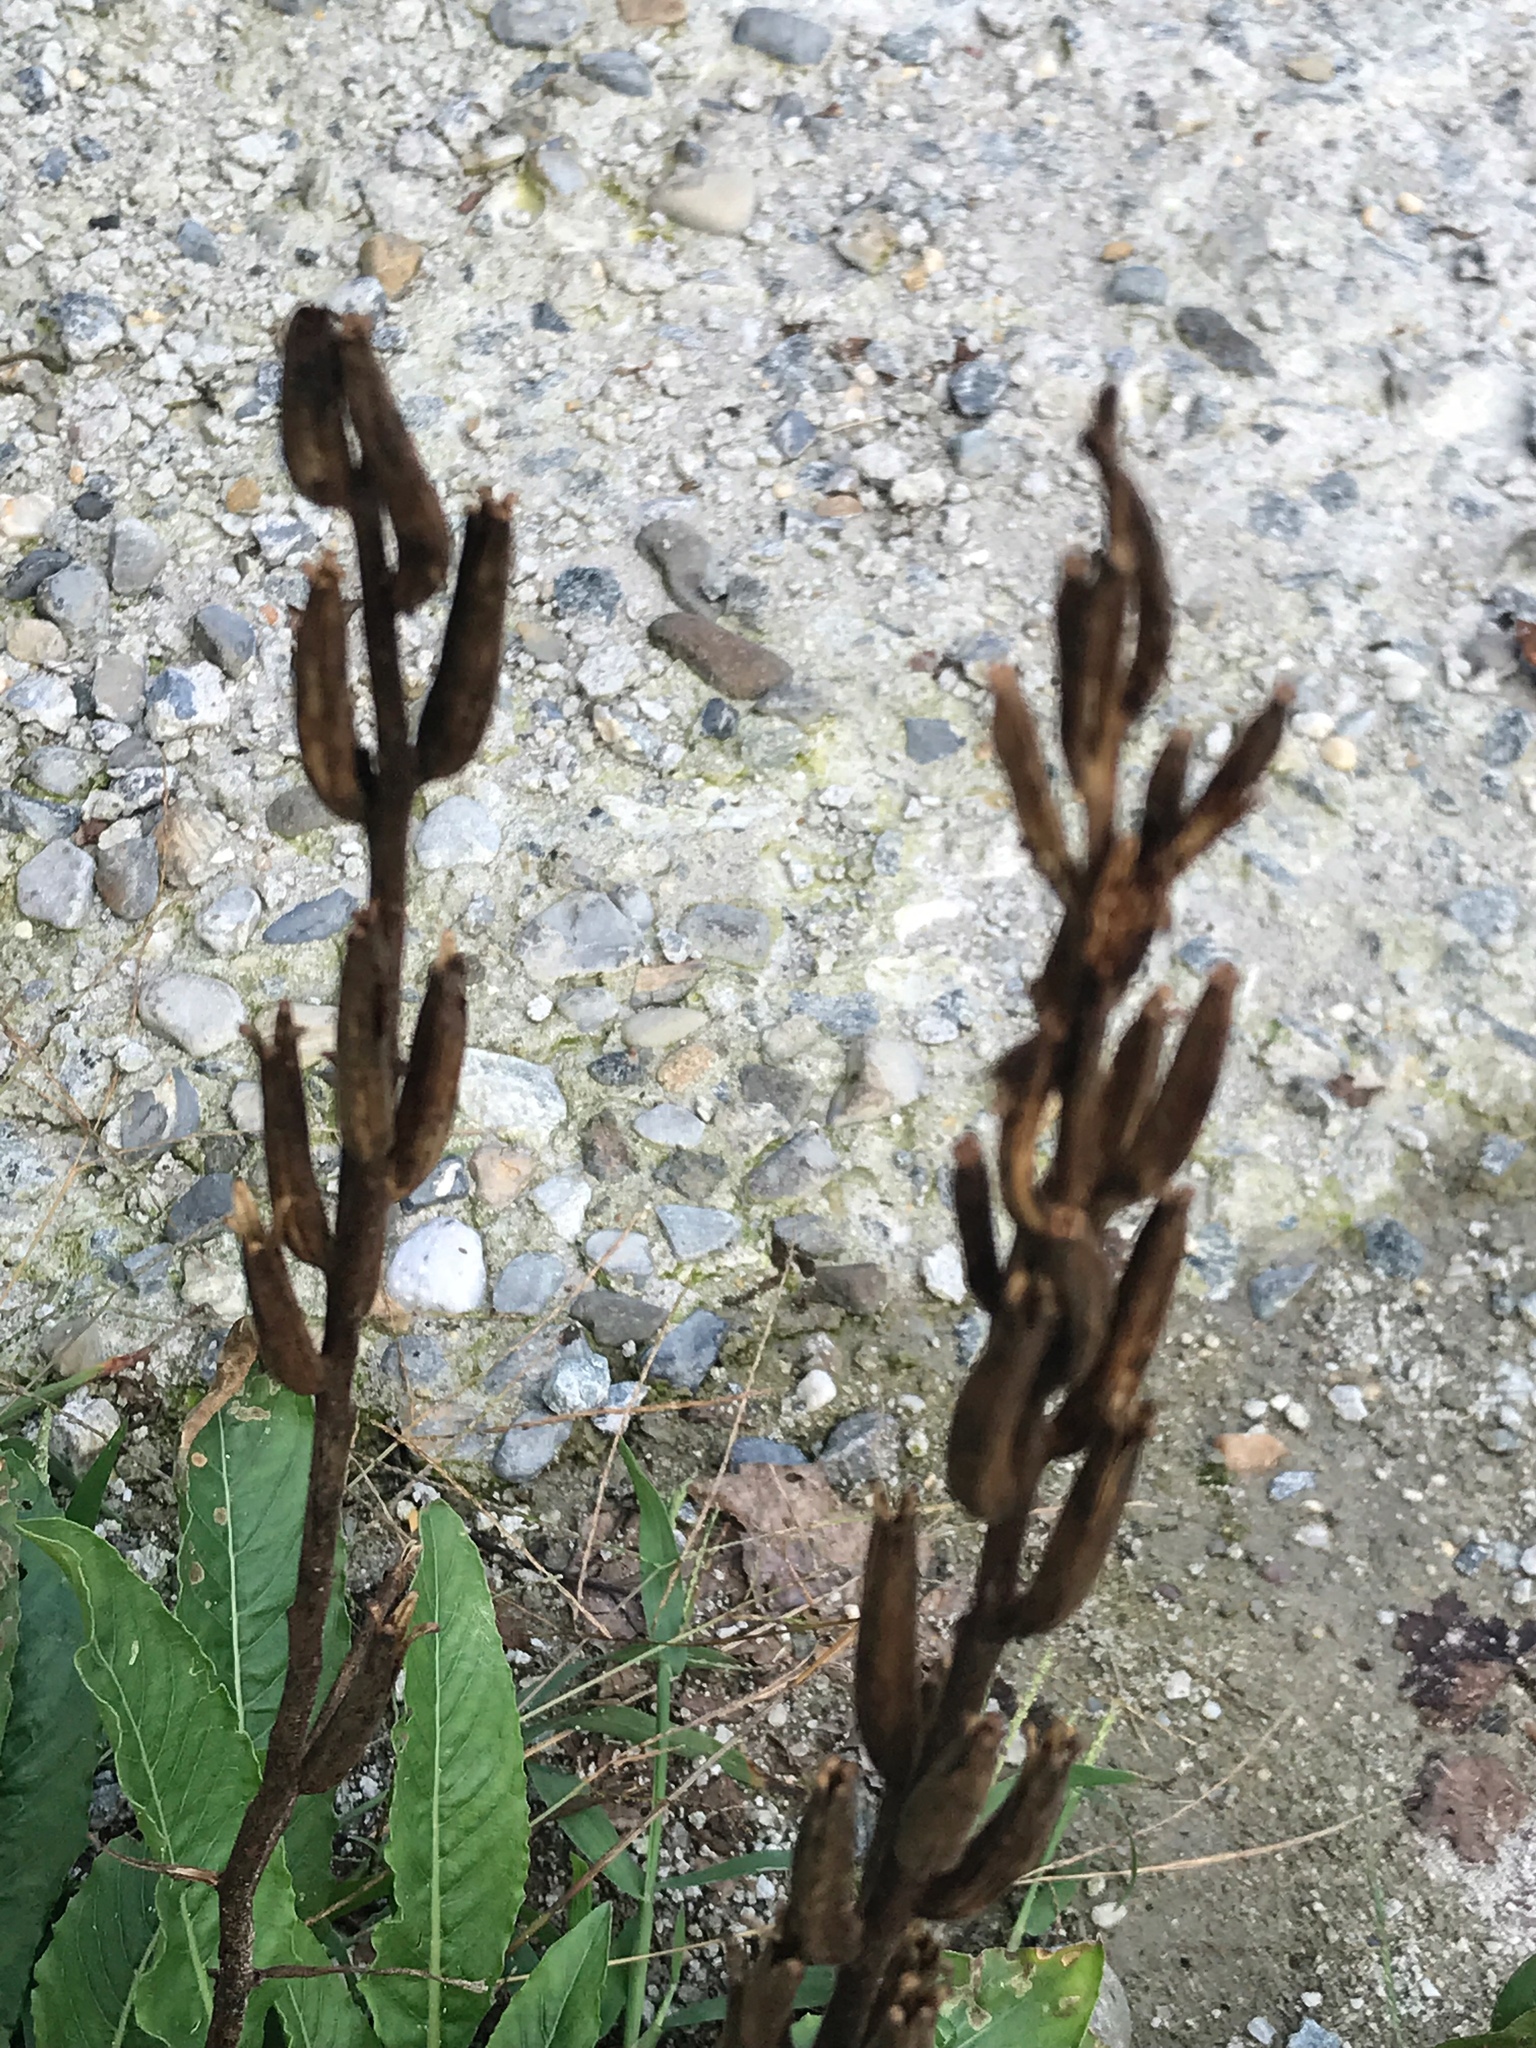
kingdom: Plantae
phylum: Tracheophyta
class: Magnoliopsida
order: Myrtales
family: Onagraceae
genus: Oenothera
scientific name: Oenothera biennis
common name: Common evening-primrose
